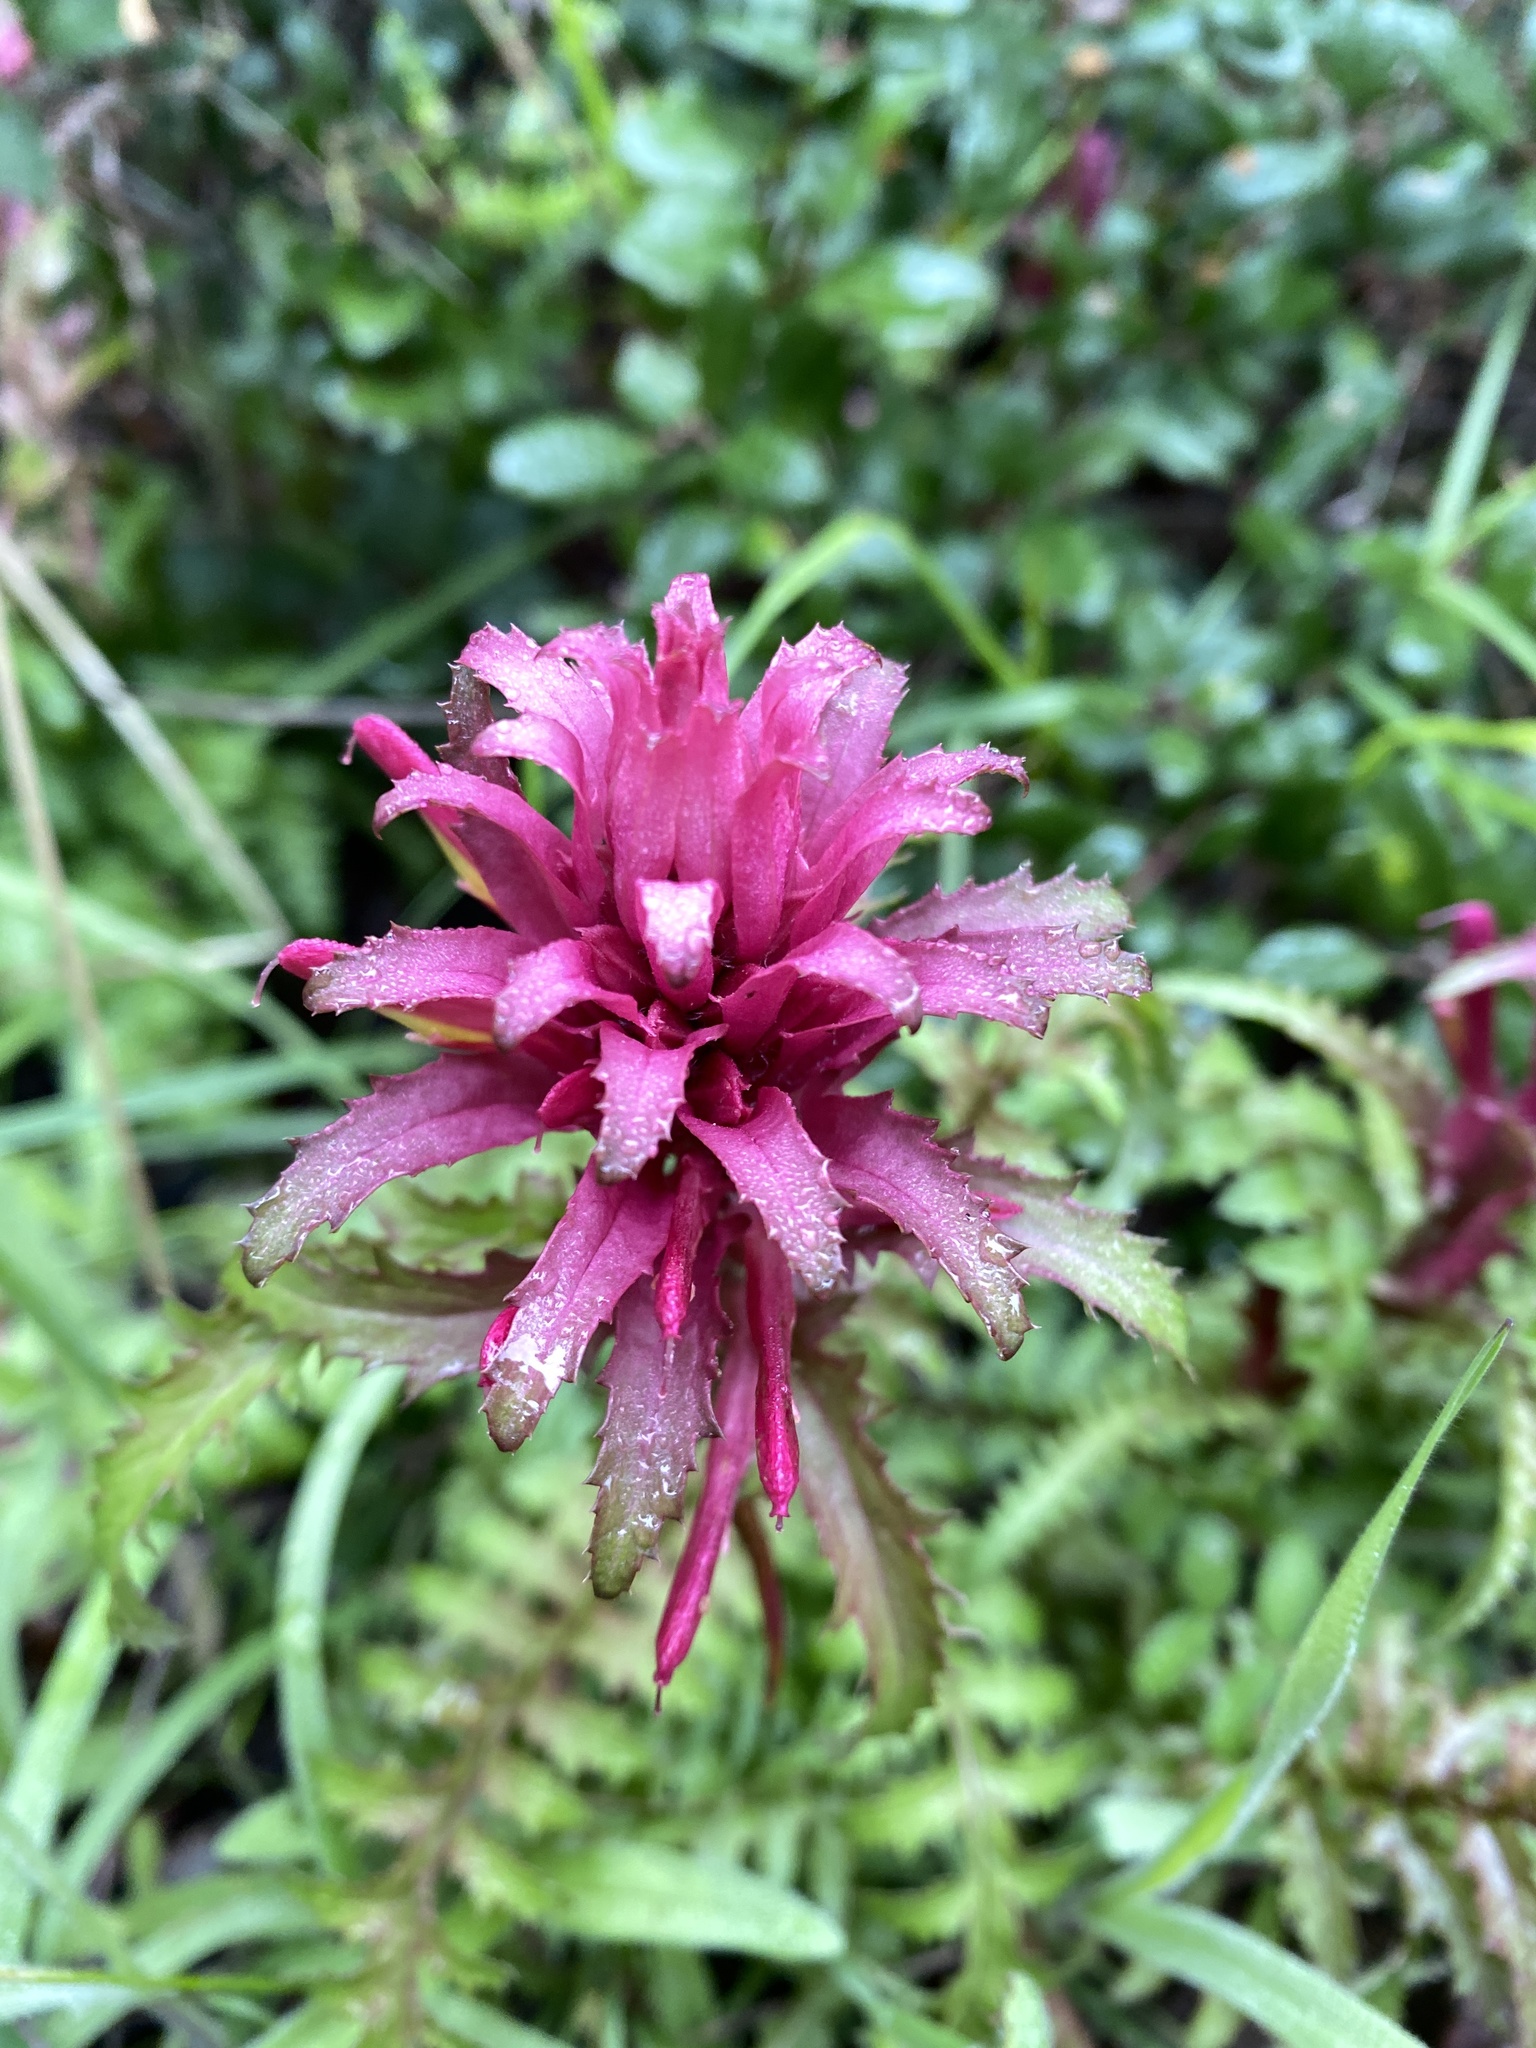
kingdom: Plantae
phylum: Tracheophyta
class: Magnoliopsida
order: Lamiales
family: Orobanchaceae
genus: Pedicularis
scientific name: Pedicularis densiflora
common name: Indian warrior
